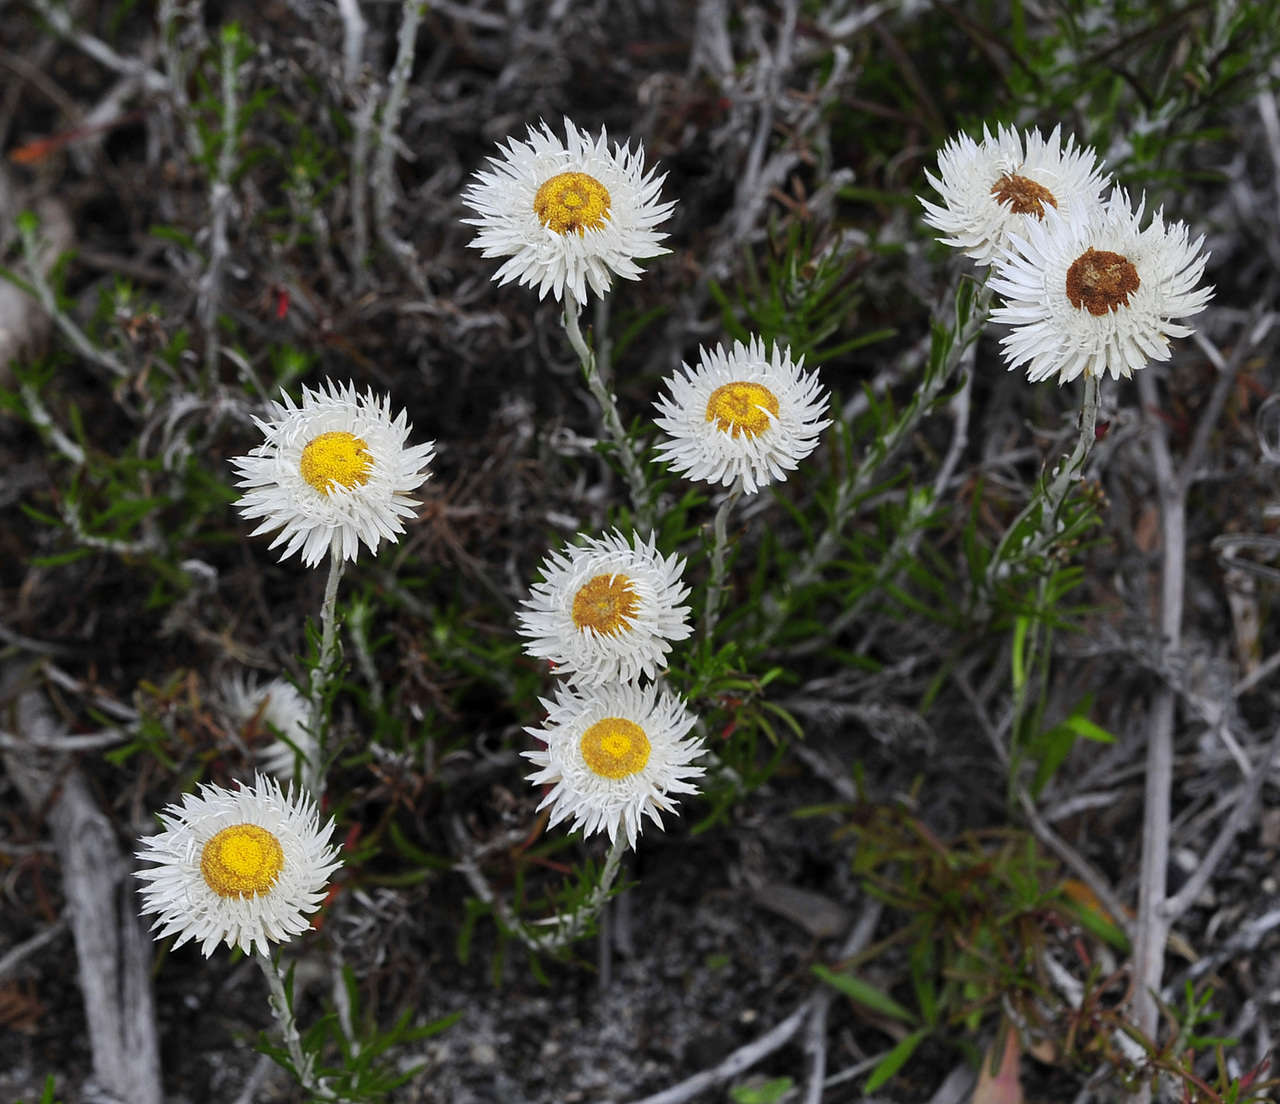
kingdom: Plantae
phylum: Tracheophyta
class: Magnoliopsida
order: Asterales
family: Asteraceae
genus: Chrysocephalum
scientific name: Chrysocephalum baxteri
